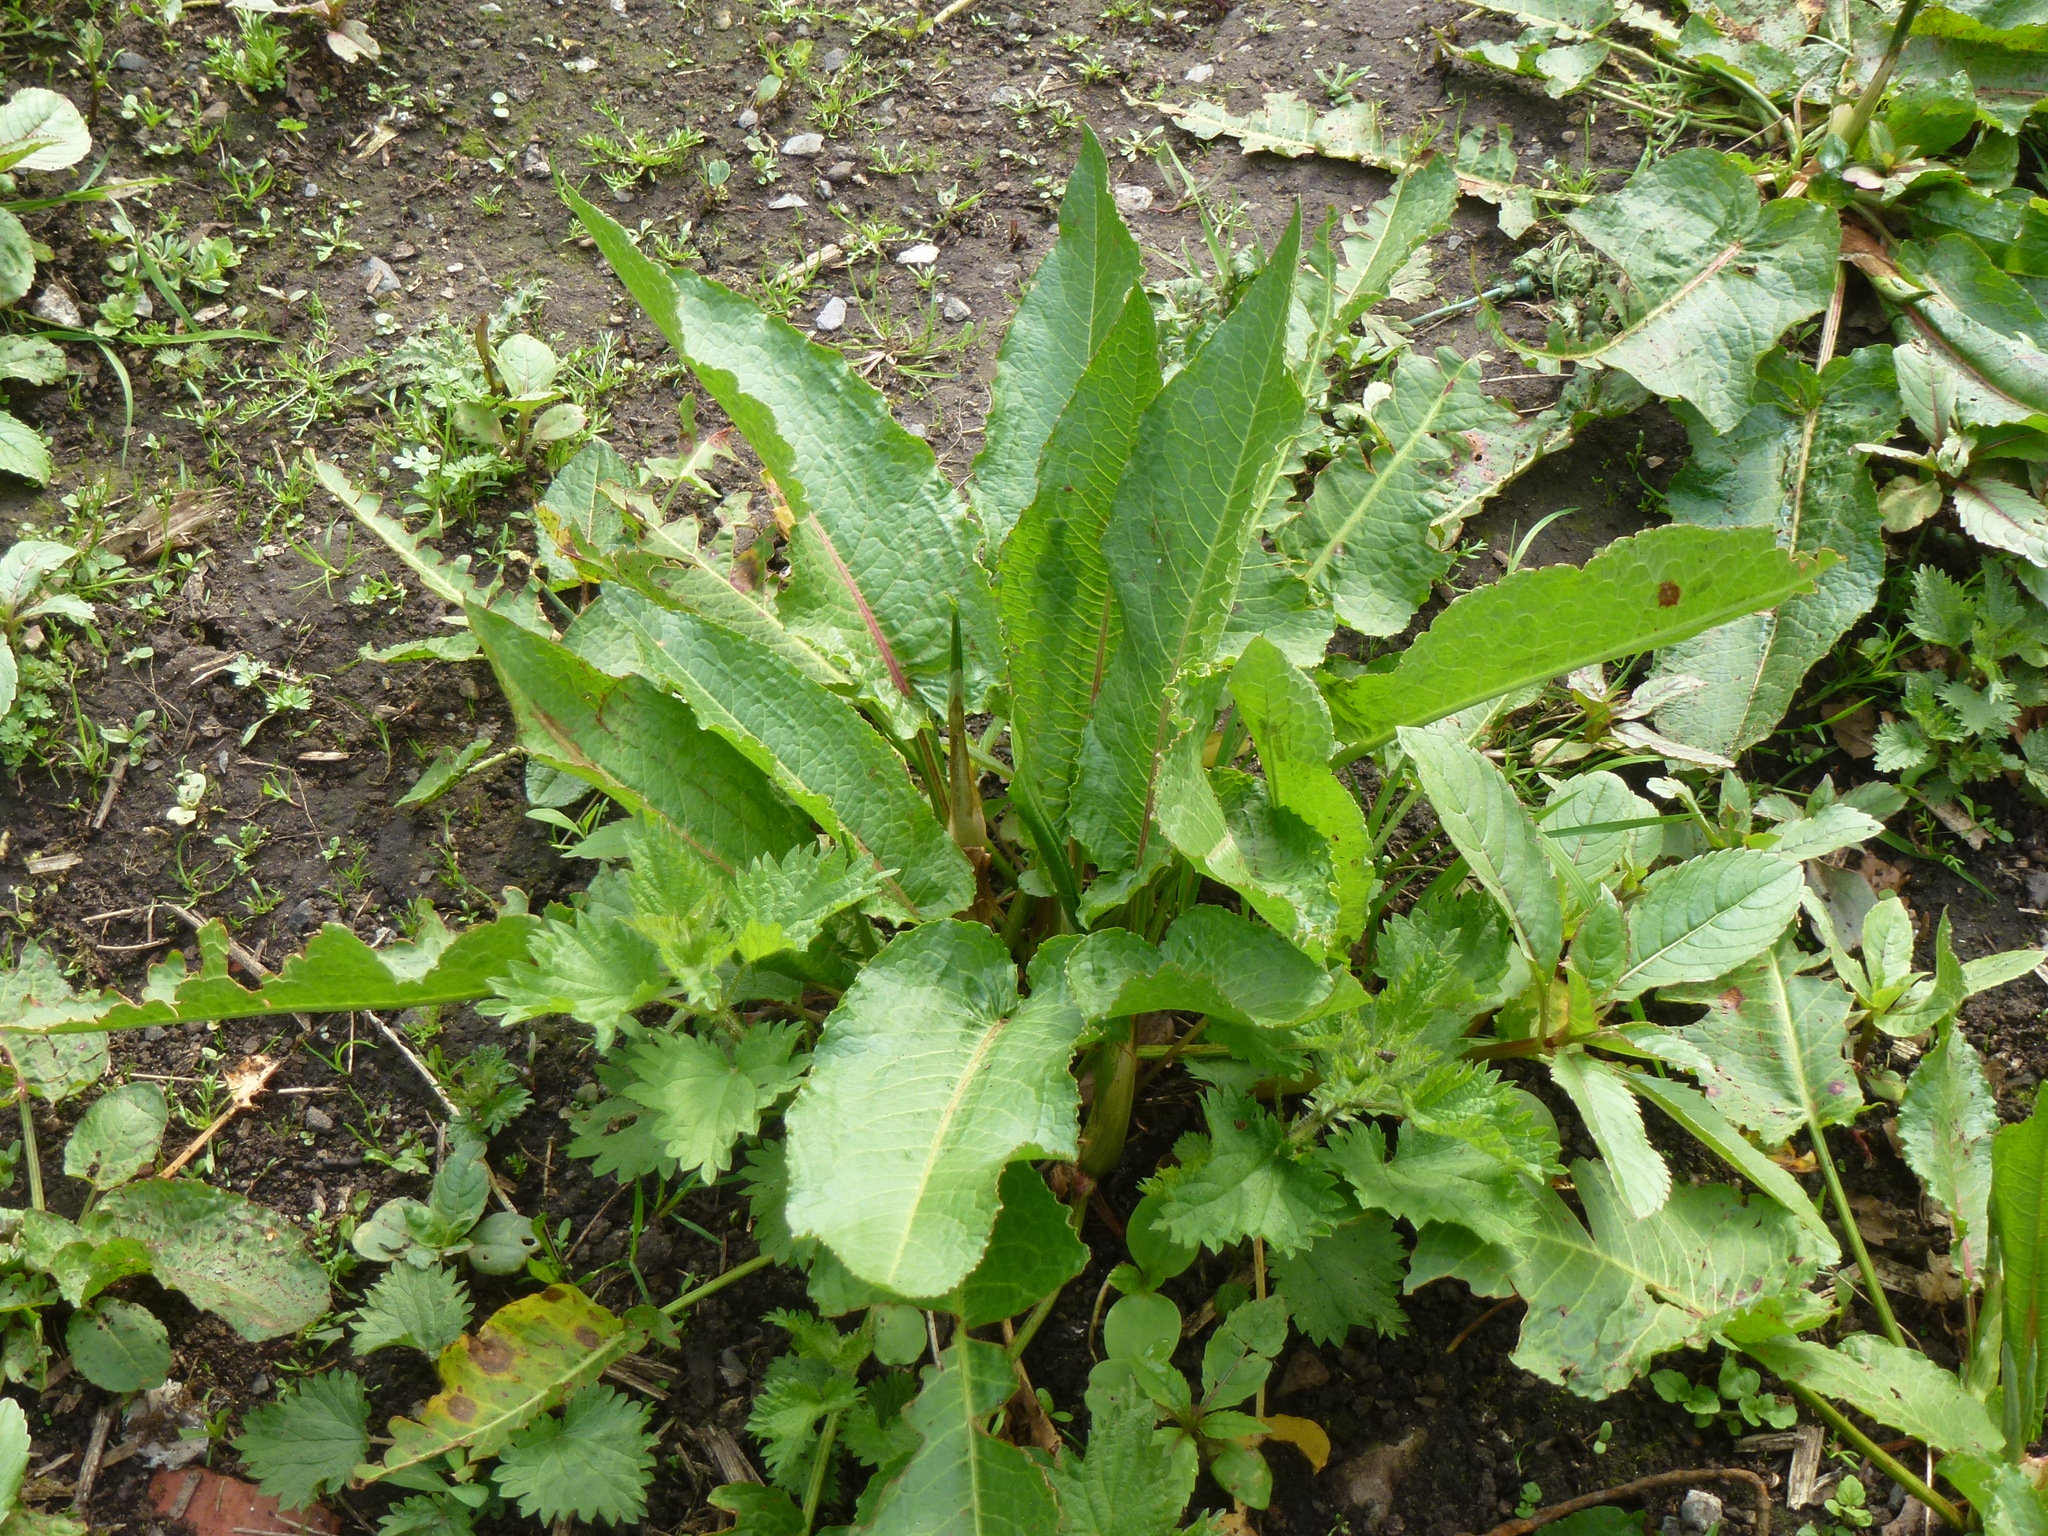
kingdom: Plantae
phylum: Tracheophyta
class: Magnoliopsida
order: Caryophyllales
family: Polygonaceae
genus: Rumex
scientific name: Rumex obtusifolius
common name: Bitter dock
